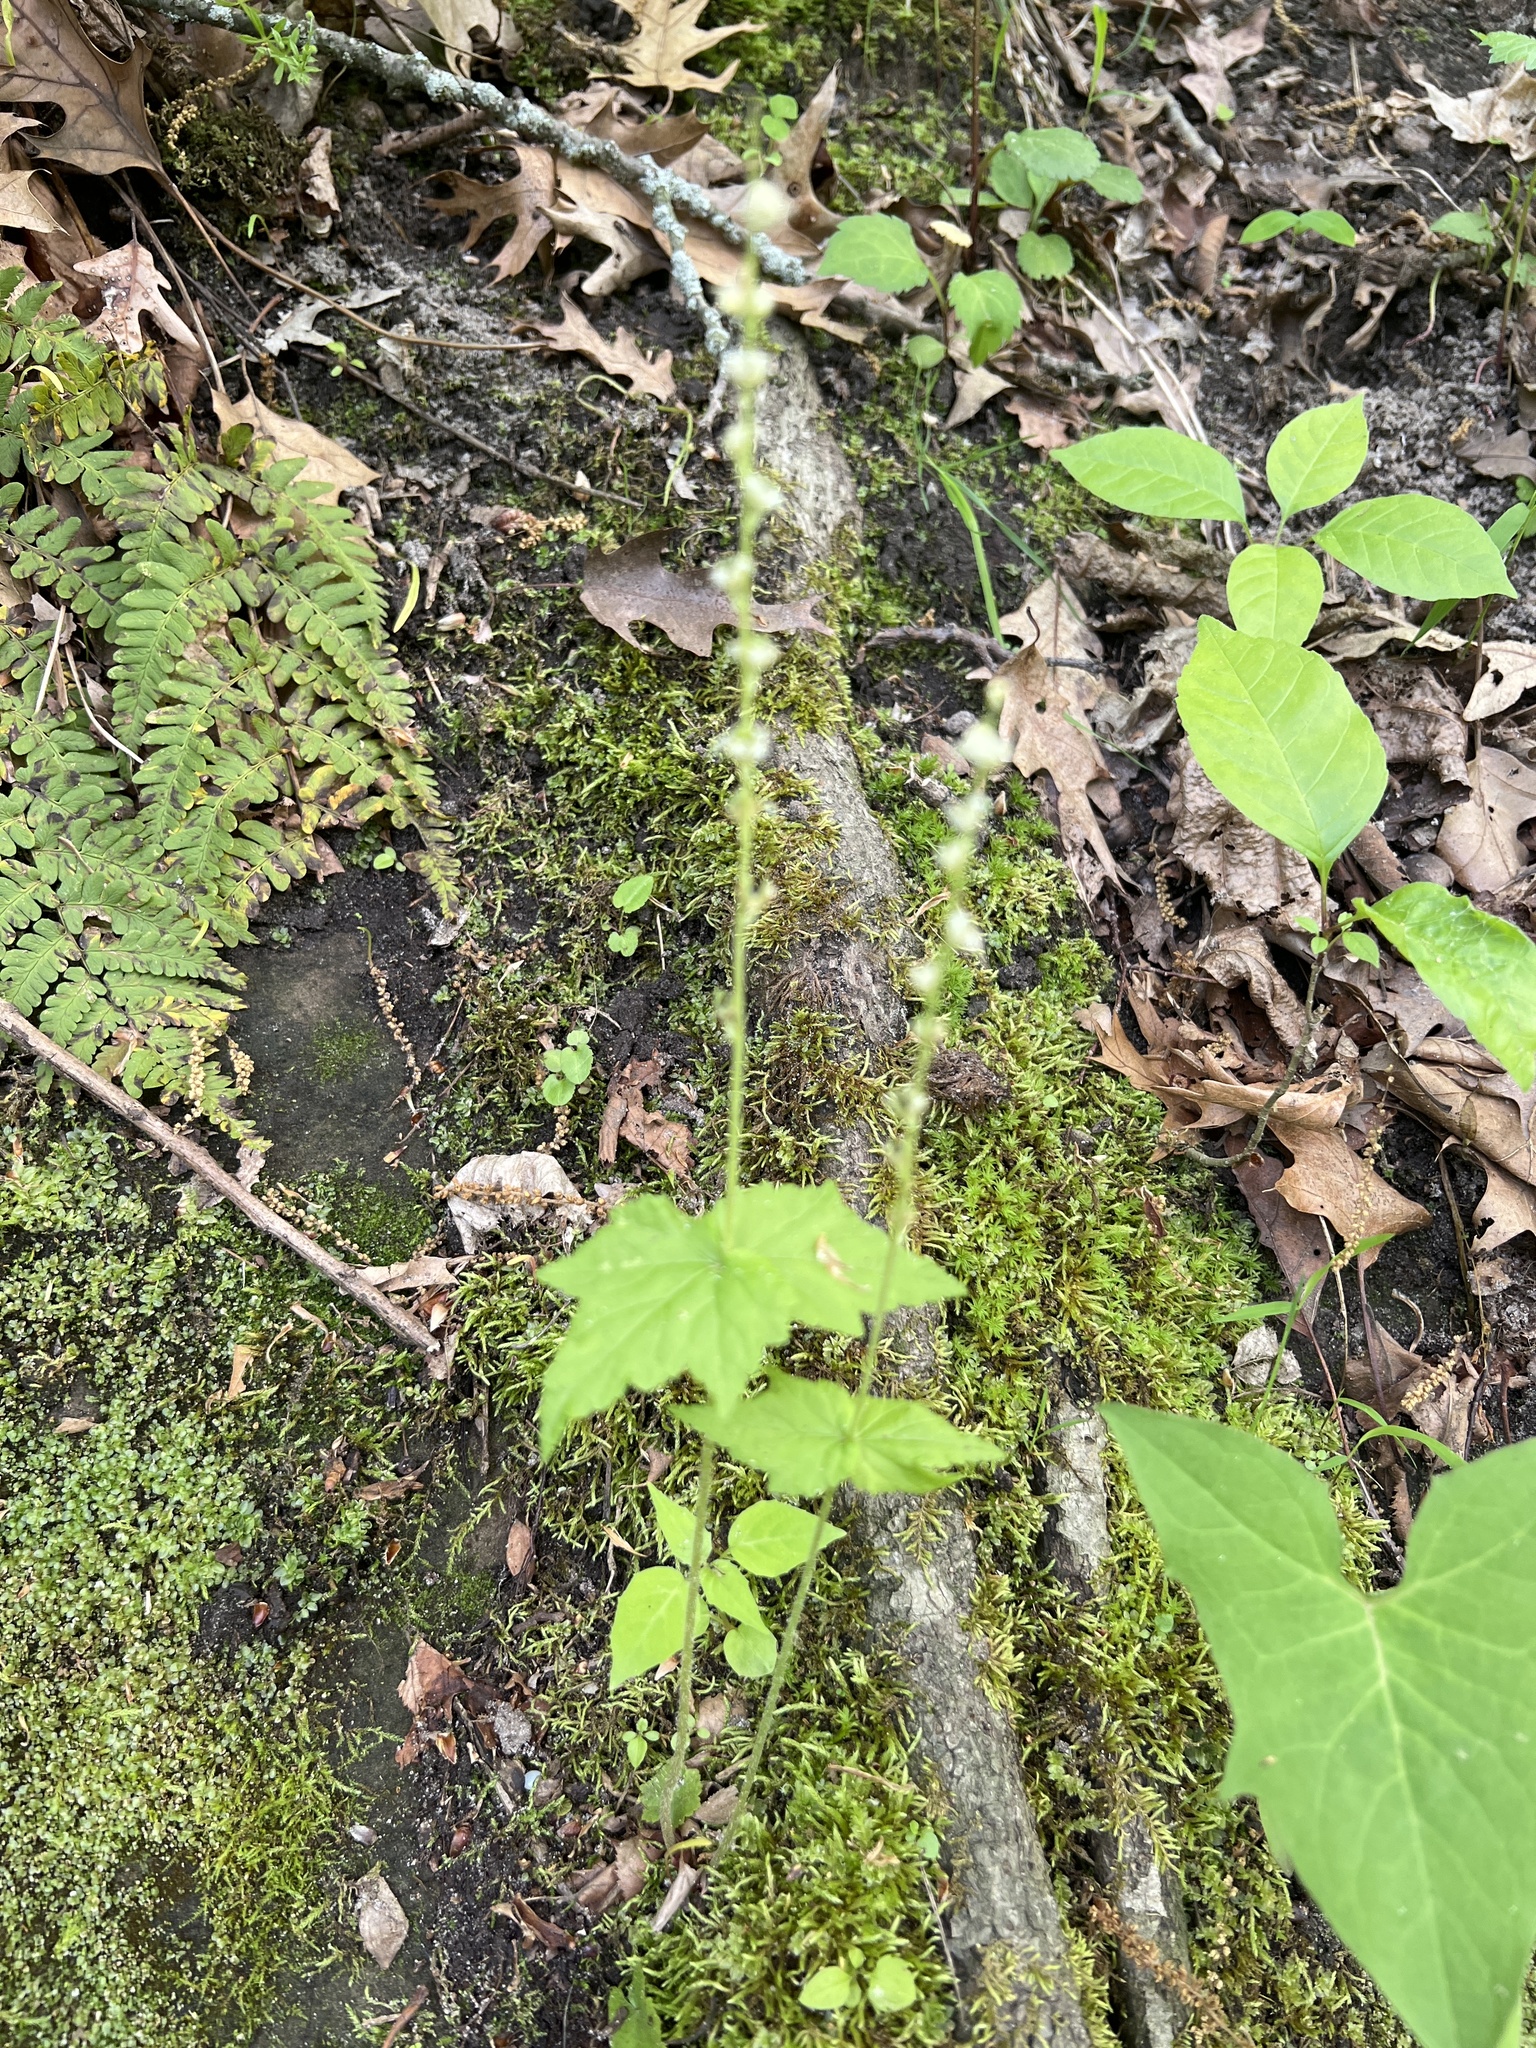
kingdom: Plantae
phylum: Tracheophyta
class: Magnoliopsida
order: Saxifragales
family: Saxifragaceae
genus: Mitella
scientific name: Mitella diphylla
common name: Coolwort
